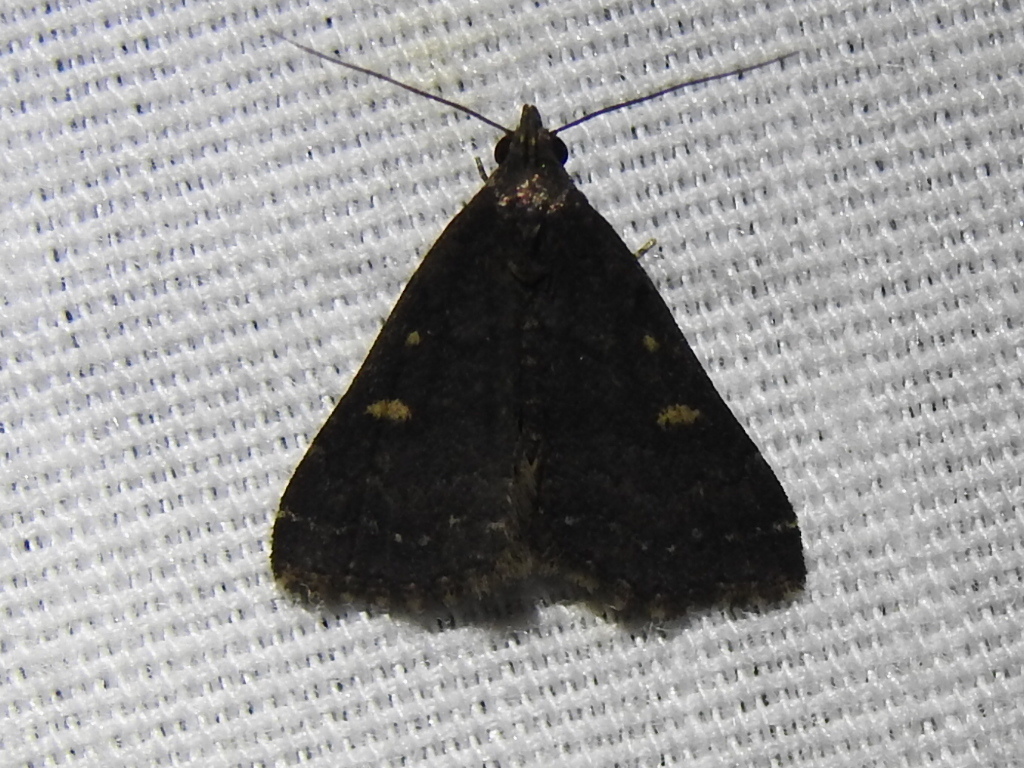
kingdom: Animalia
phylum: Arthropoda
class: Insecta
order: Lepidoptera
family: Erebidae
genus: Tetanolita
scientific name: Tetanolita mynesalis
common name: Smoky tetanolita moth
